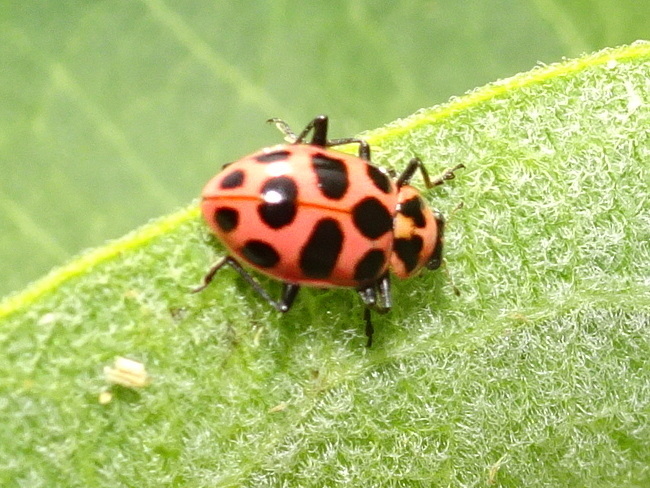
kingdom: Animalia
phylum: Arthropoda
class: Insecta
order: Coleoptera
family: Coccinellidae
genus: Coleomegilla
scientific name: Coleomegilla maculata
